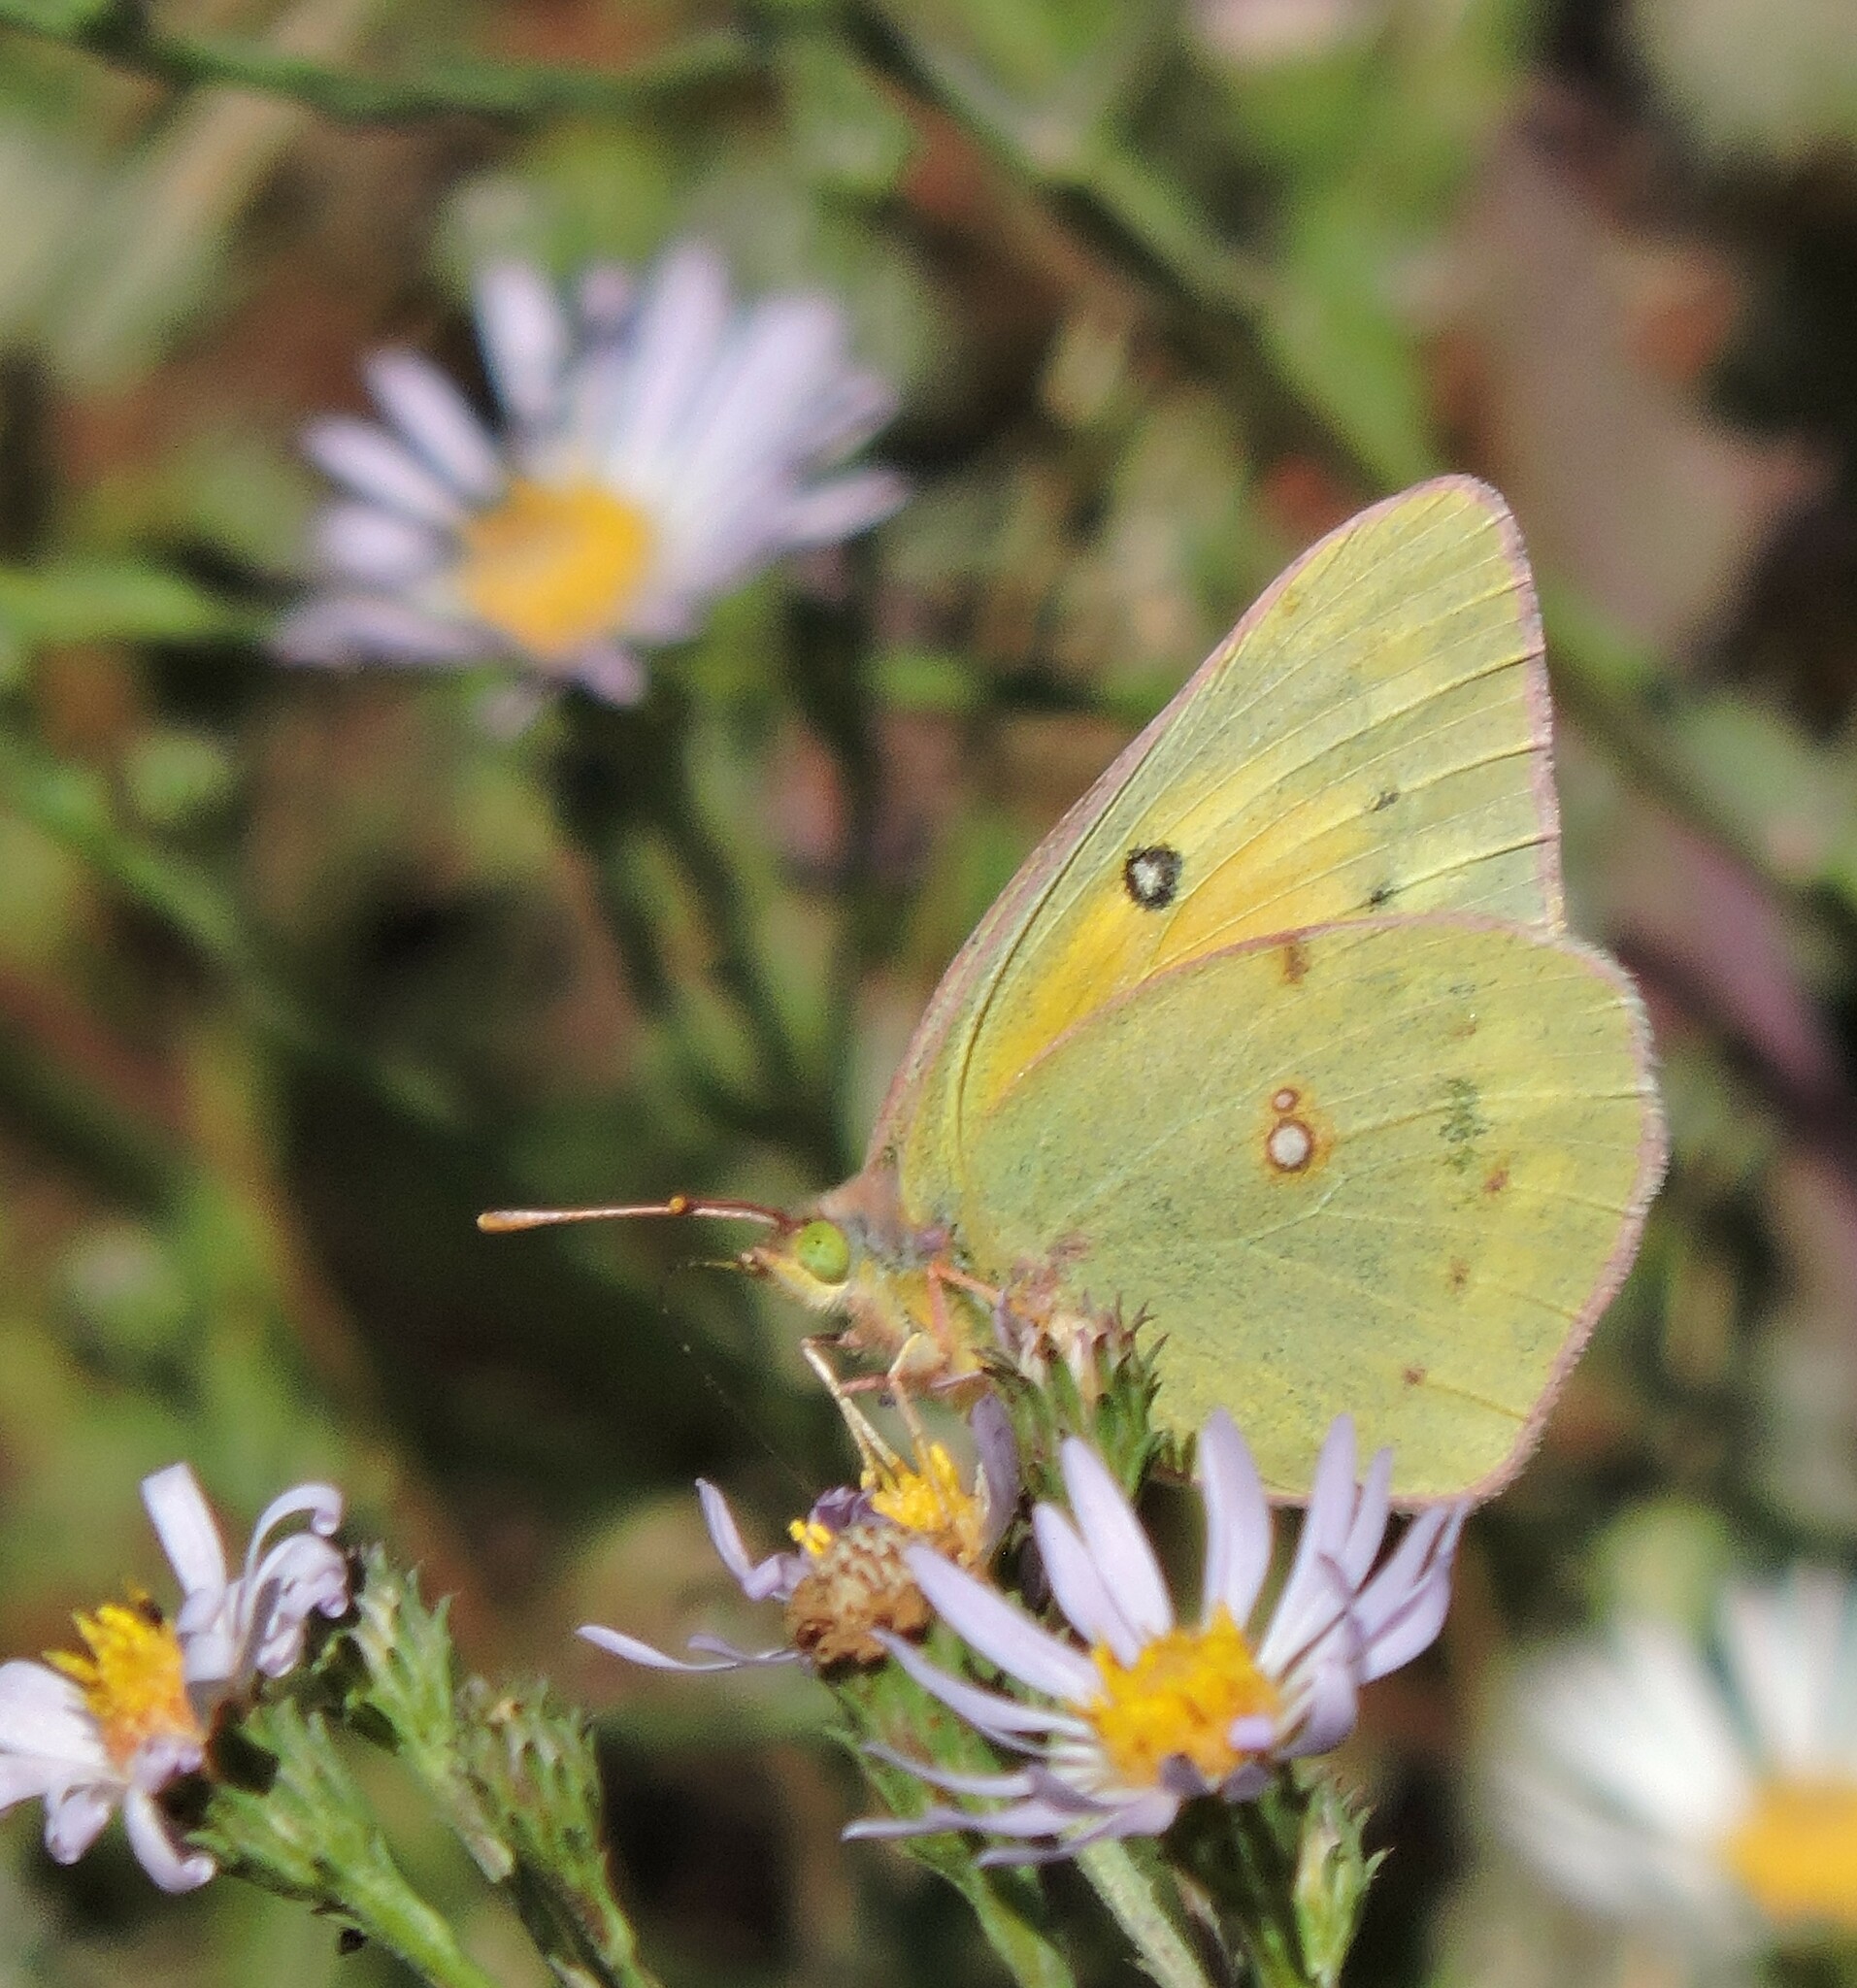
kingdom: Animalia
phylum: Arthropoda
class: Insecta
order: Lepidoptera
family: Pieridae
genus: Colias
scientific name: Colias eurytheme
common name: Alfalfa butterfly
